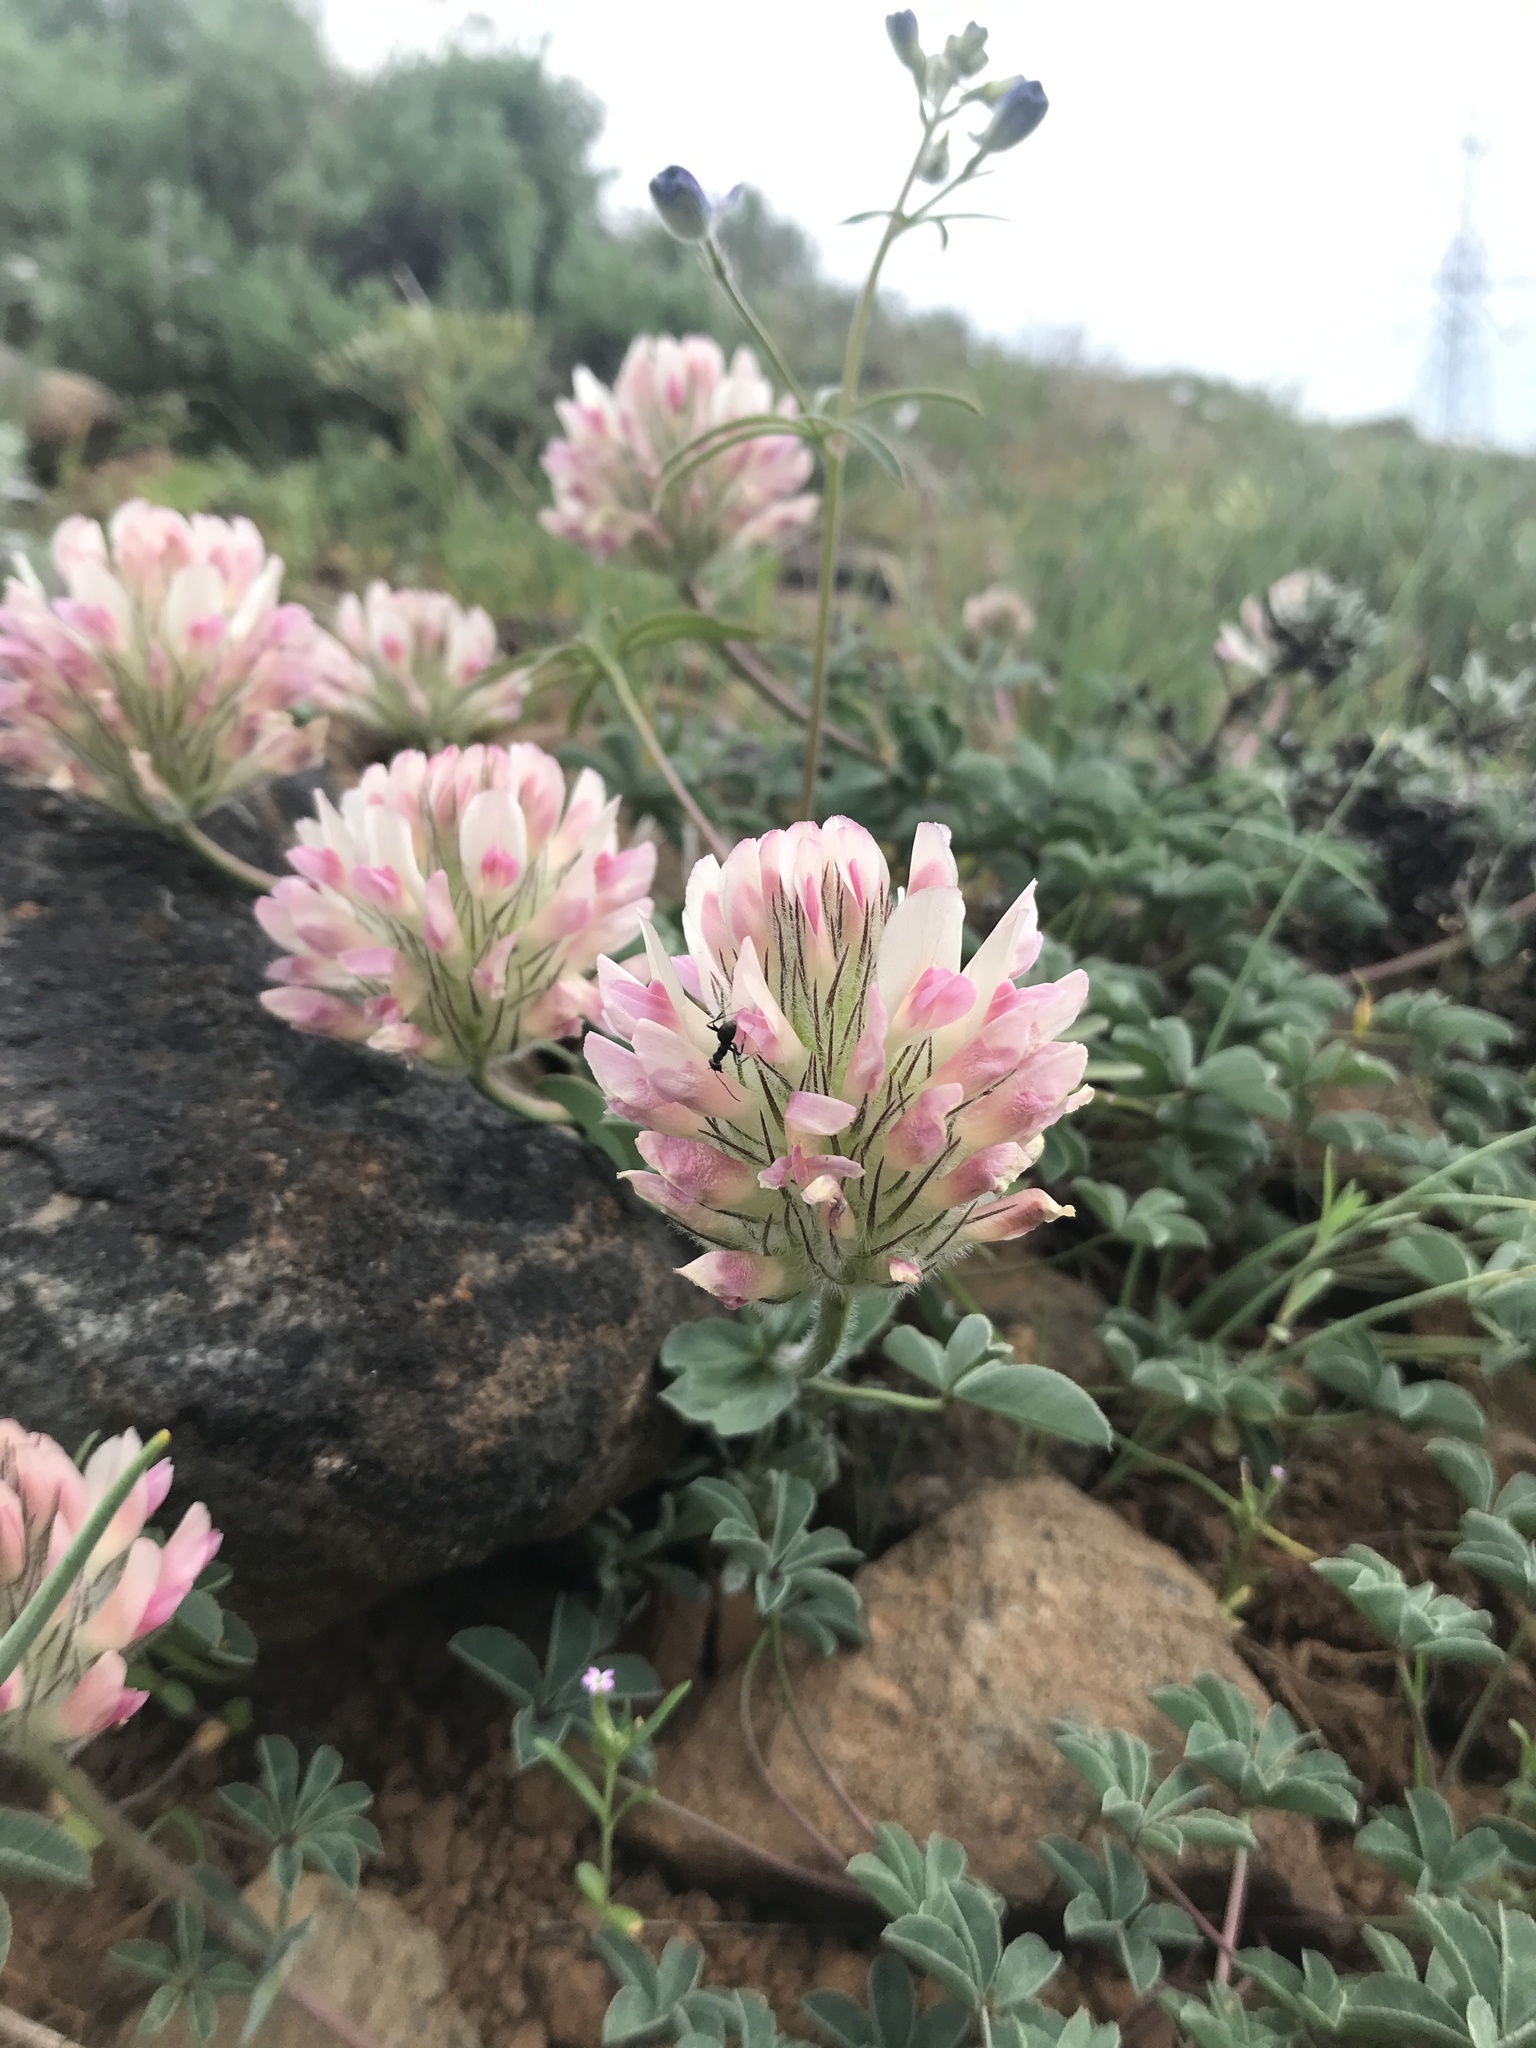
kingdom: Plantae
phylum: Tracheophyta
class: Magnoliopsida
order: Fabales
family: Fabaceae
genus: Trifolium
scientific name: Trifolium macrocephalum
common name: Large-head clover
